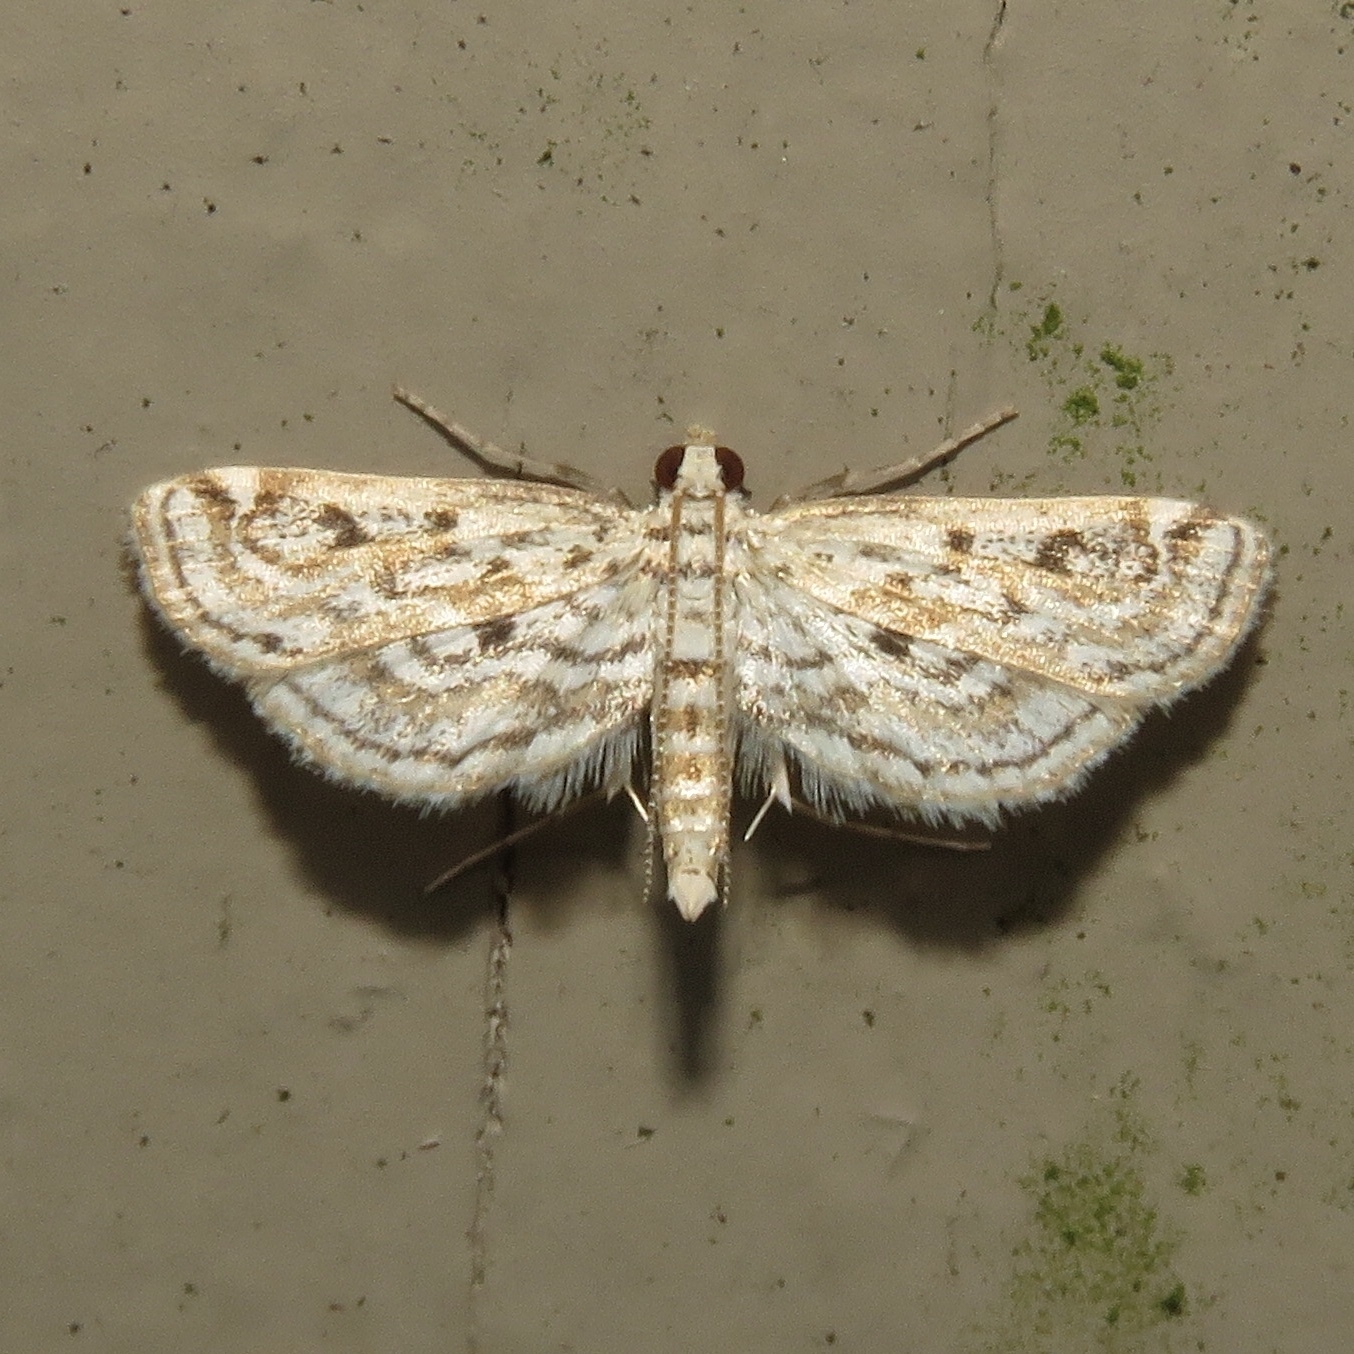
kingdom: Animalia
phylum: Arthropoda
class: Insecta
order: Lepidoptera
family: Crambidae
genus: Parapoynx
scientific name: Parapoynx allionealis
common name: Bladderwort casemaker
